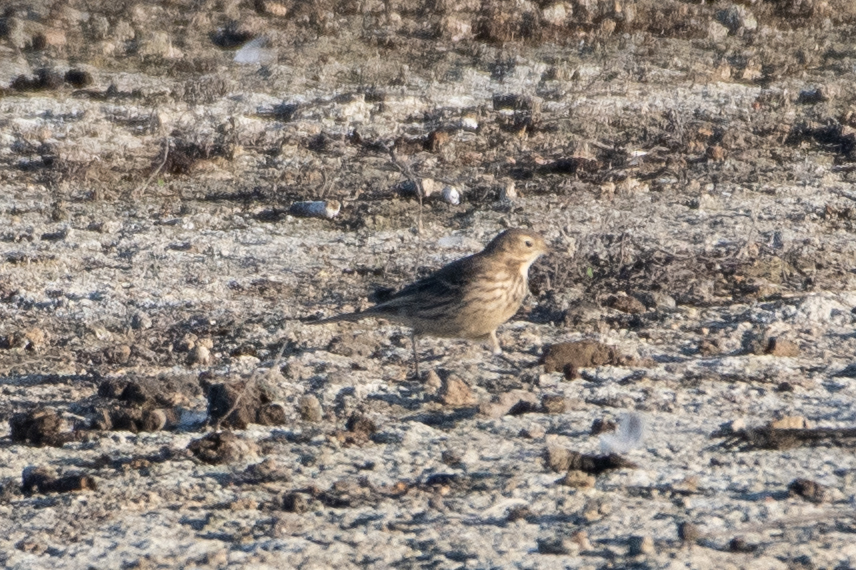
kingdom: Animalia
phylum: Chordata
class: Aves
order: Passeriformes
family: Motacillidae
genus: Anthus
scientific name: Anthus rubescens
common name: Buff-bellied pipit
